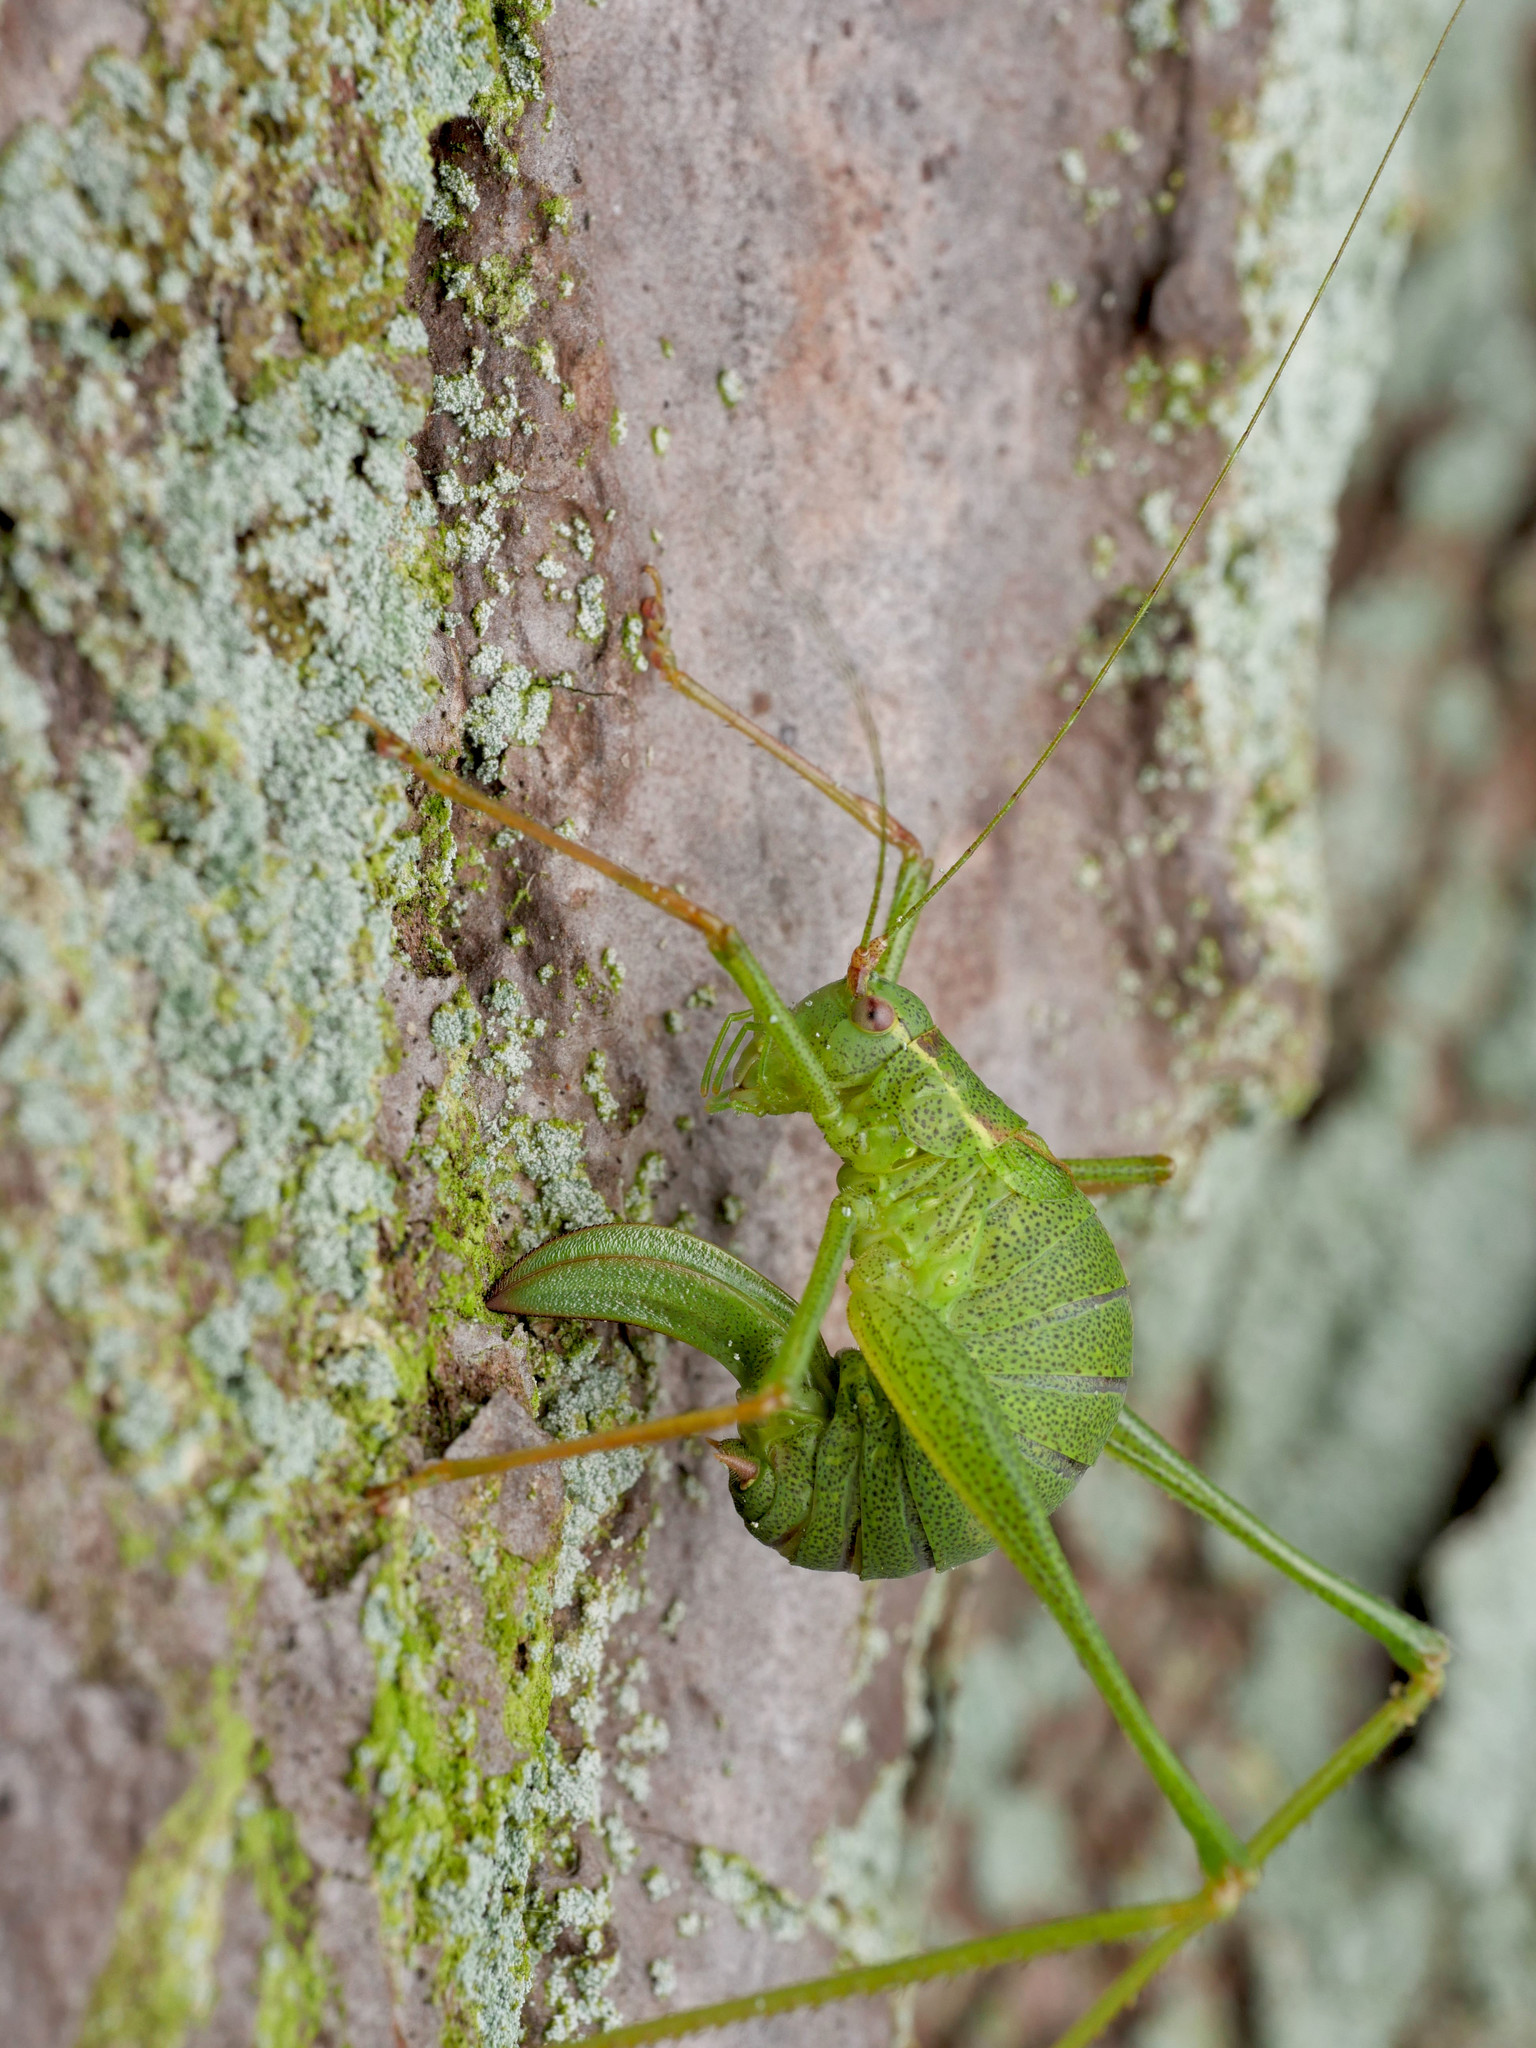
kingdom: Animalia
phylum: Arthropoda
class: Insecta
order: Orthoptera
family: Tettigoniidae
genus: Leptophyes
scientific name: Leptophyes punctatissima
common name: Speckled bush-cricket
